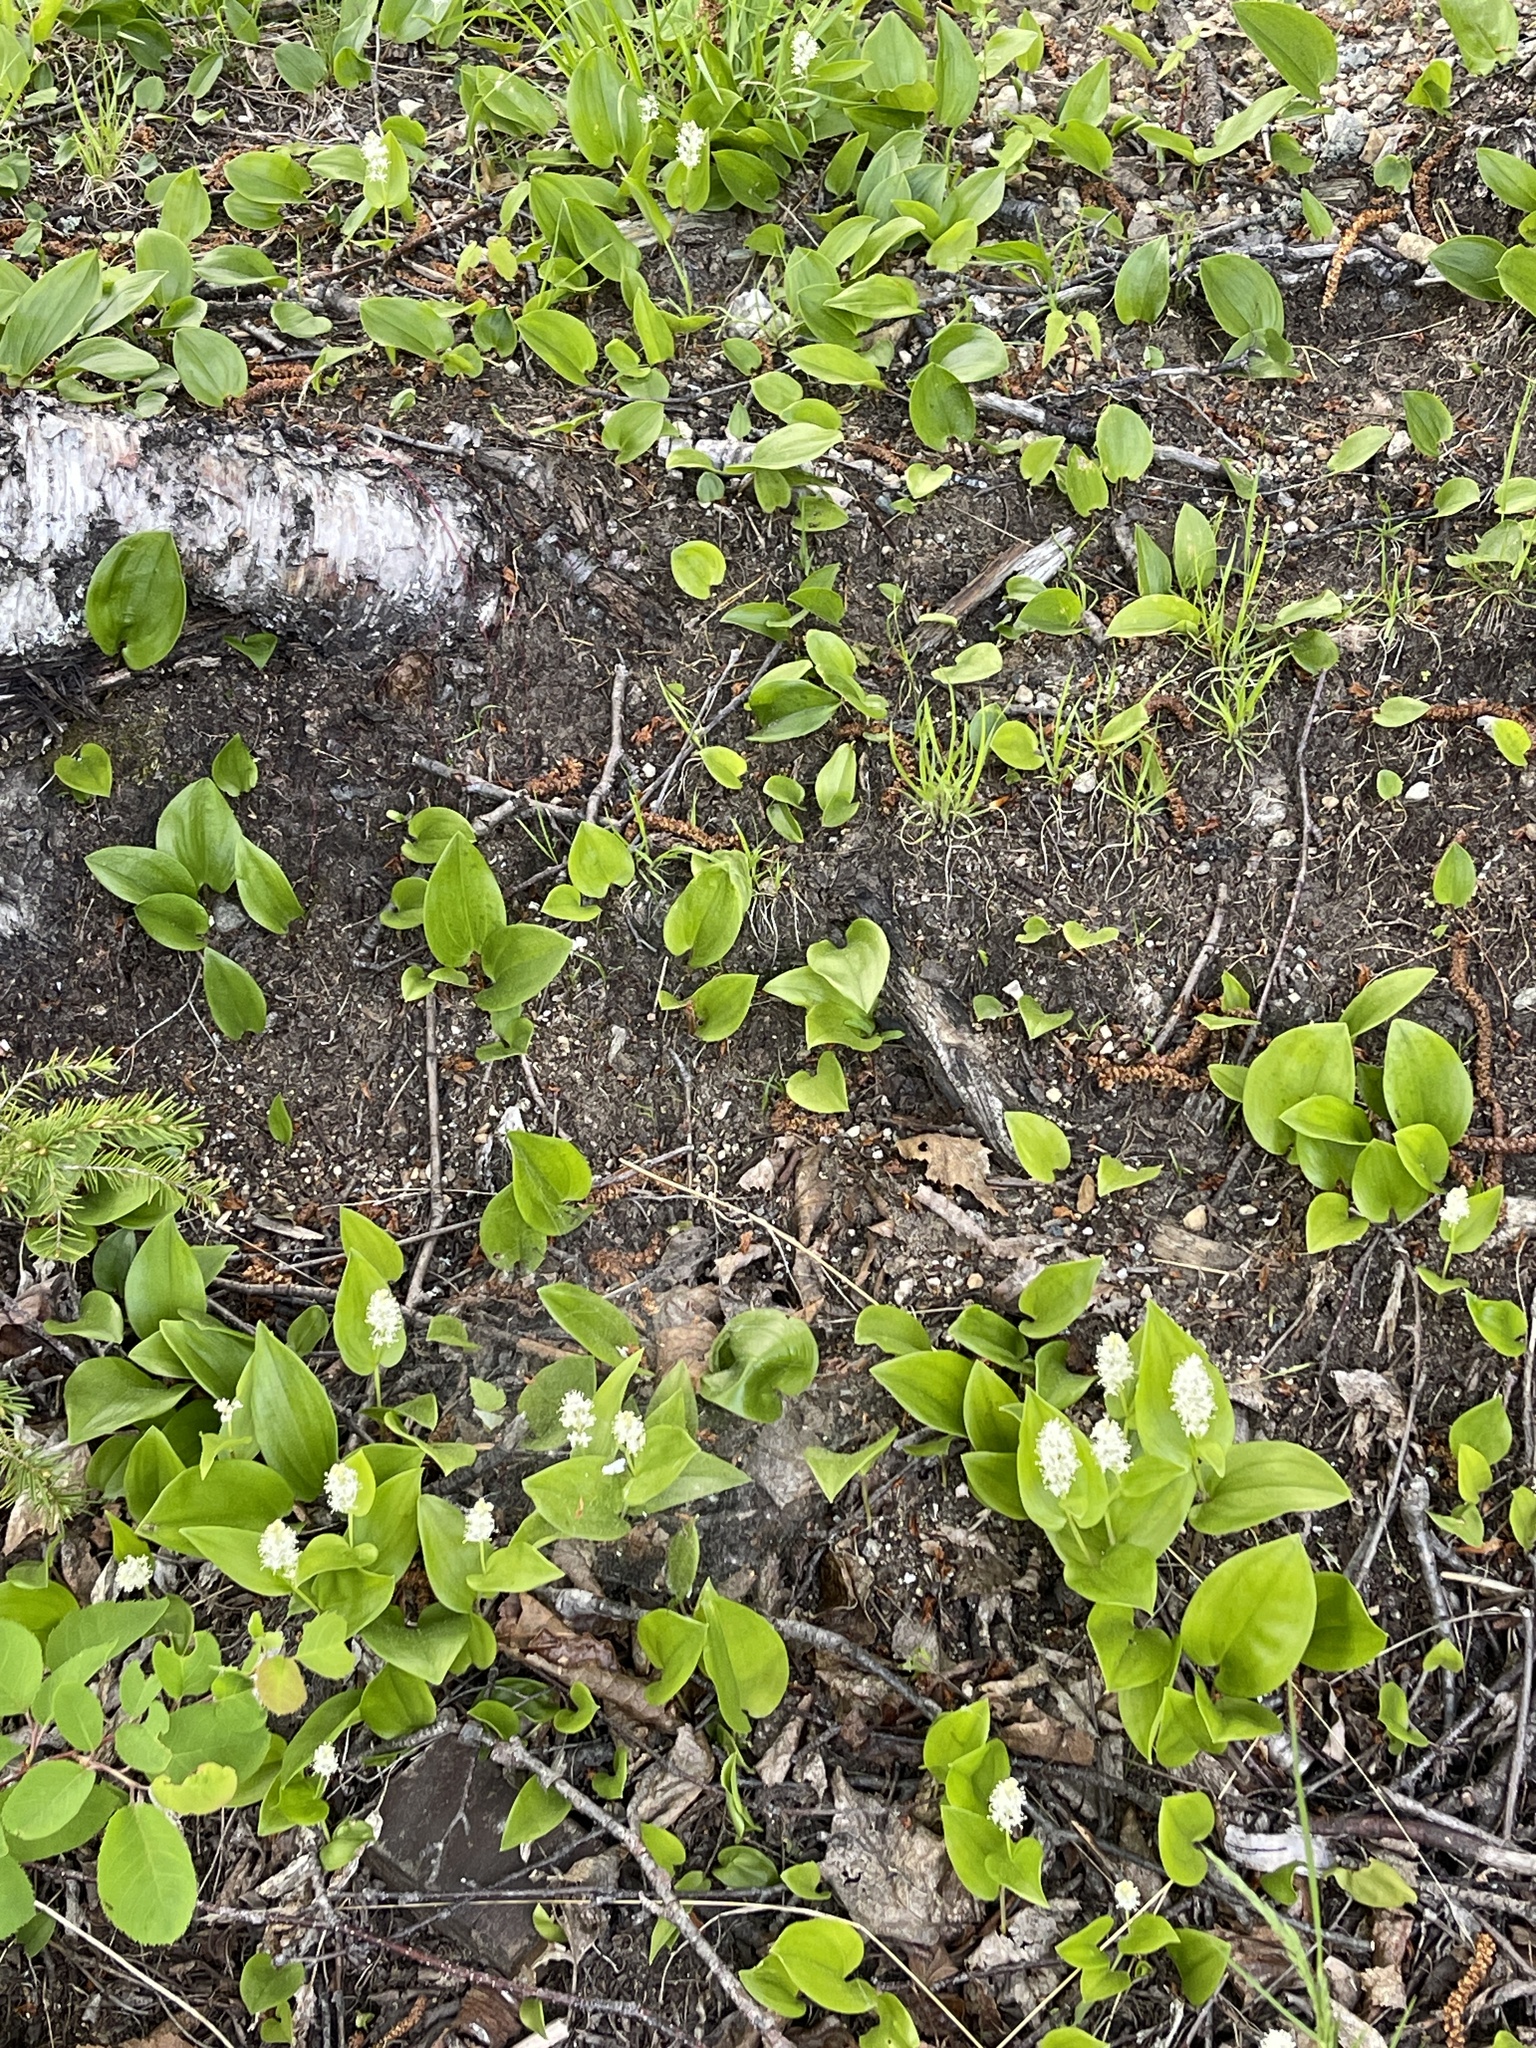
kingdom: Plantae
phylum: Tracheophyta
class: Liliopsida
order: Asparagales
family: Asparagaceae
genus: Maianthemum
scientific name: Maianthemum canadense
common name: False lily-of-the-valley
